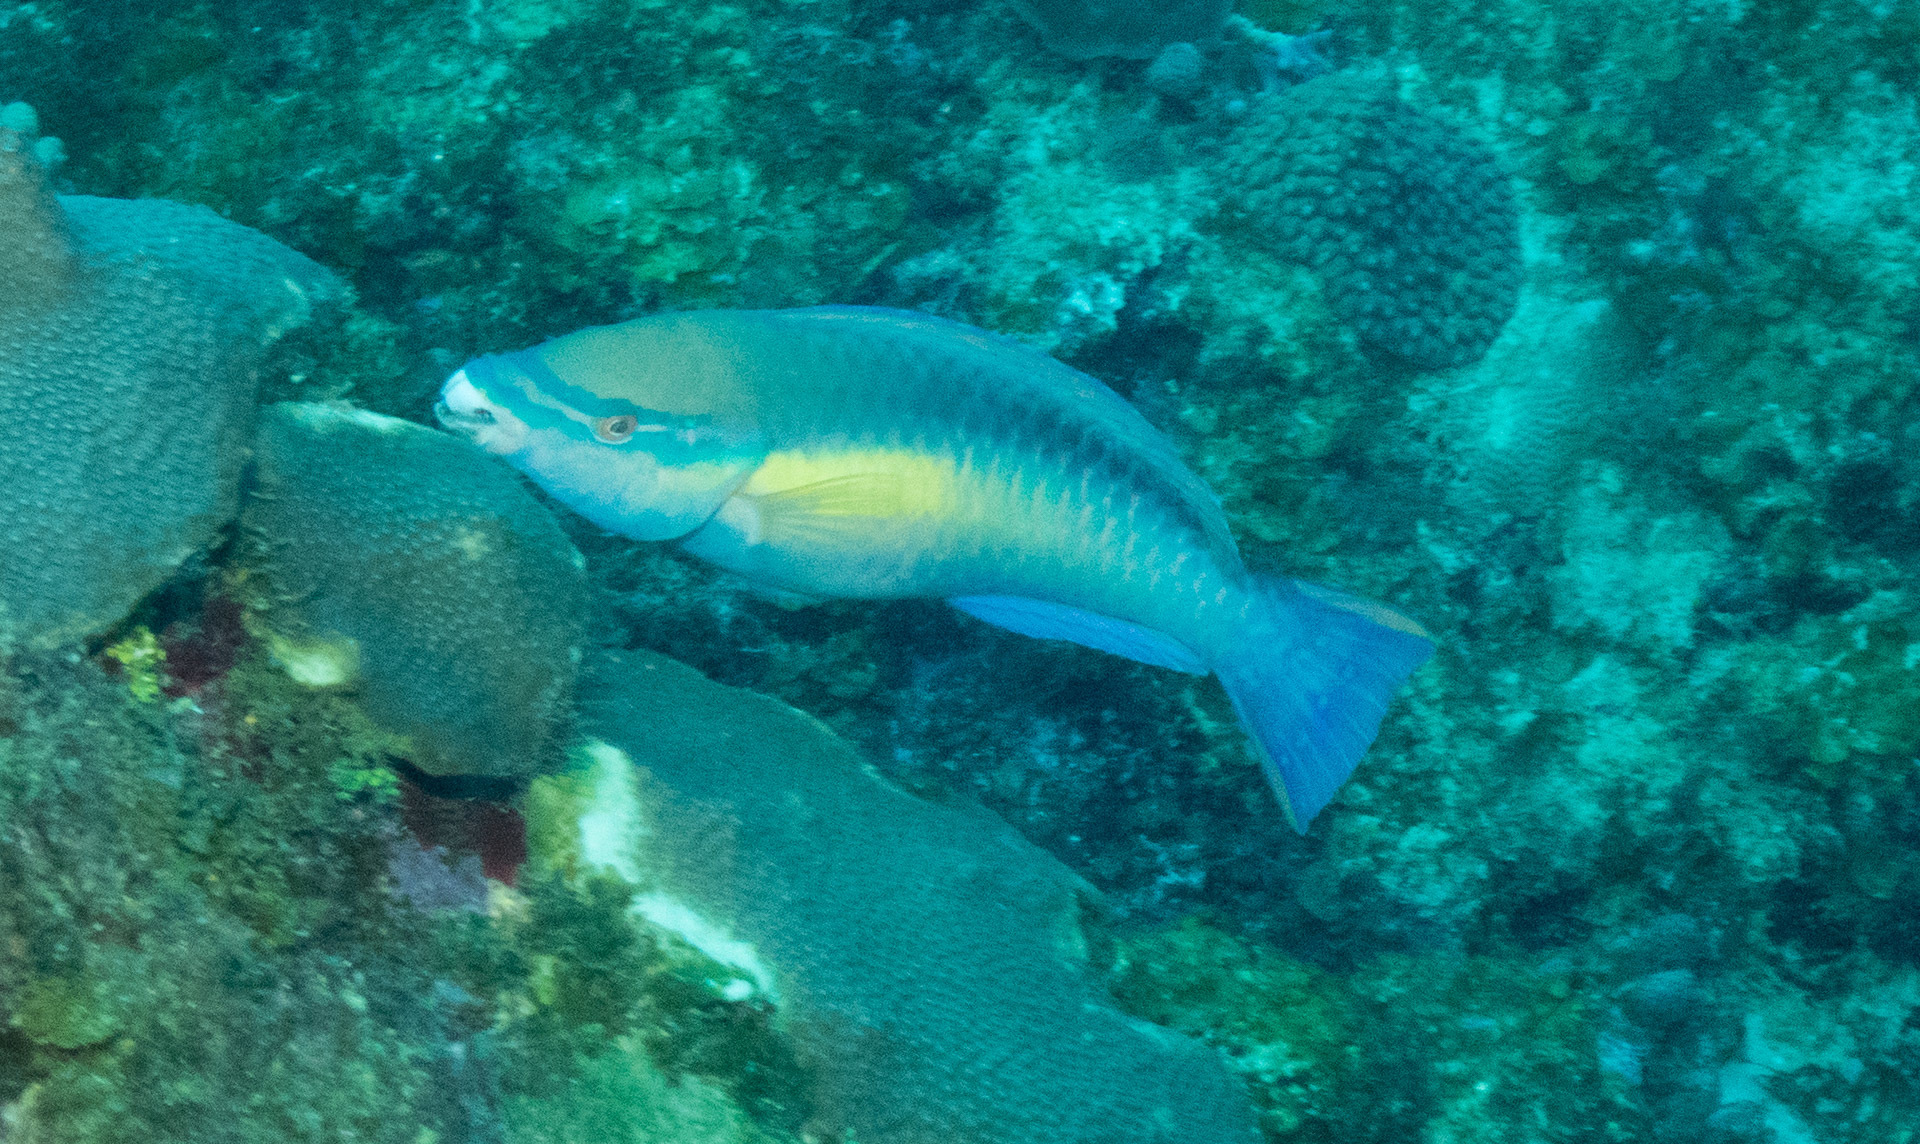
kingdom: Animalia
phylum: Chordata
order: Perciformes
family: Scaridae
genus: Scarus
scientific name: Scarus taeniopterus
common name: Princess parrotfish
